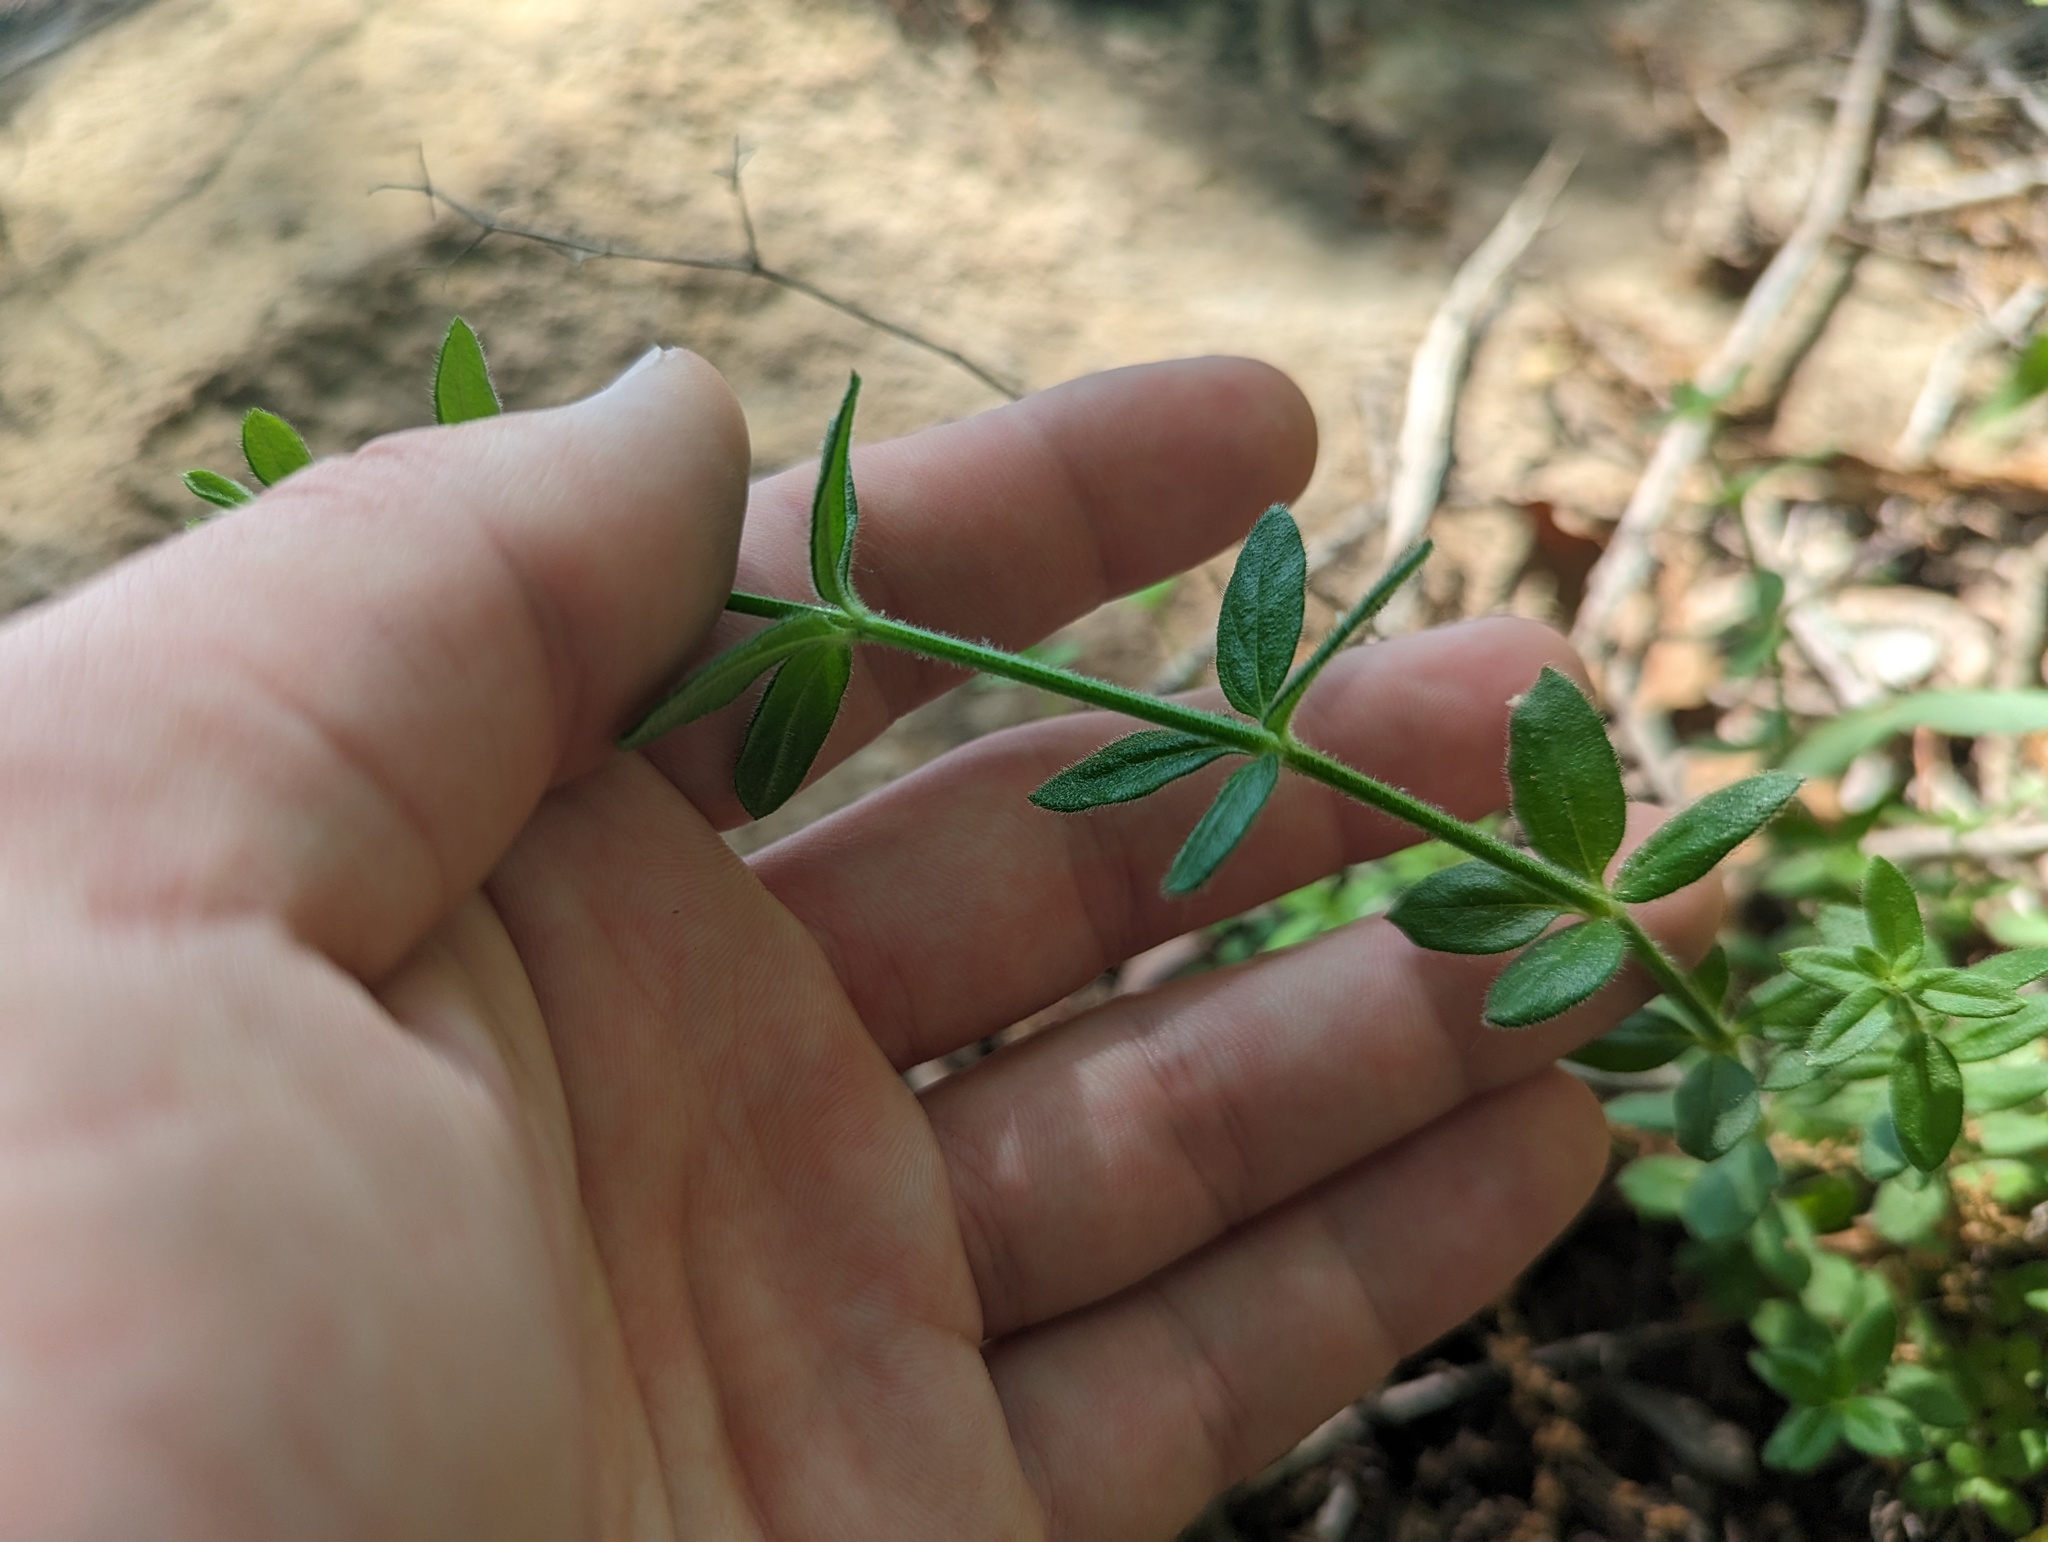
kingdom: Plantae
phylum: Tracheophyta
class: Magnoliopsida
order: Gentianales
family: Rubiaceae
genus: Galium
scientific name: Galium pilosum
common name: Hairy bedstraw
